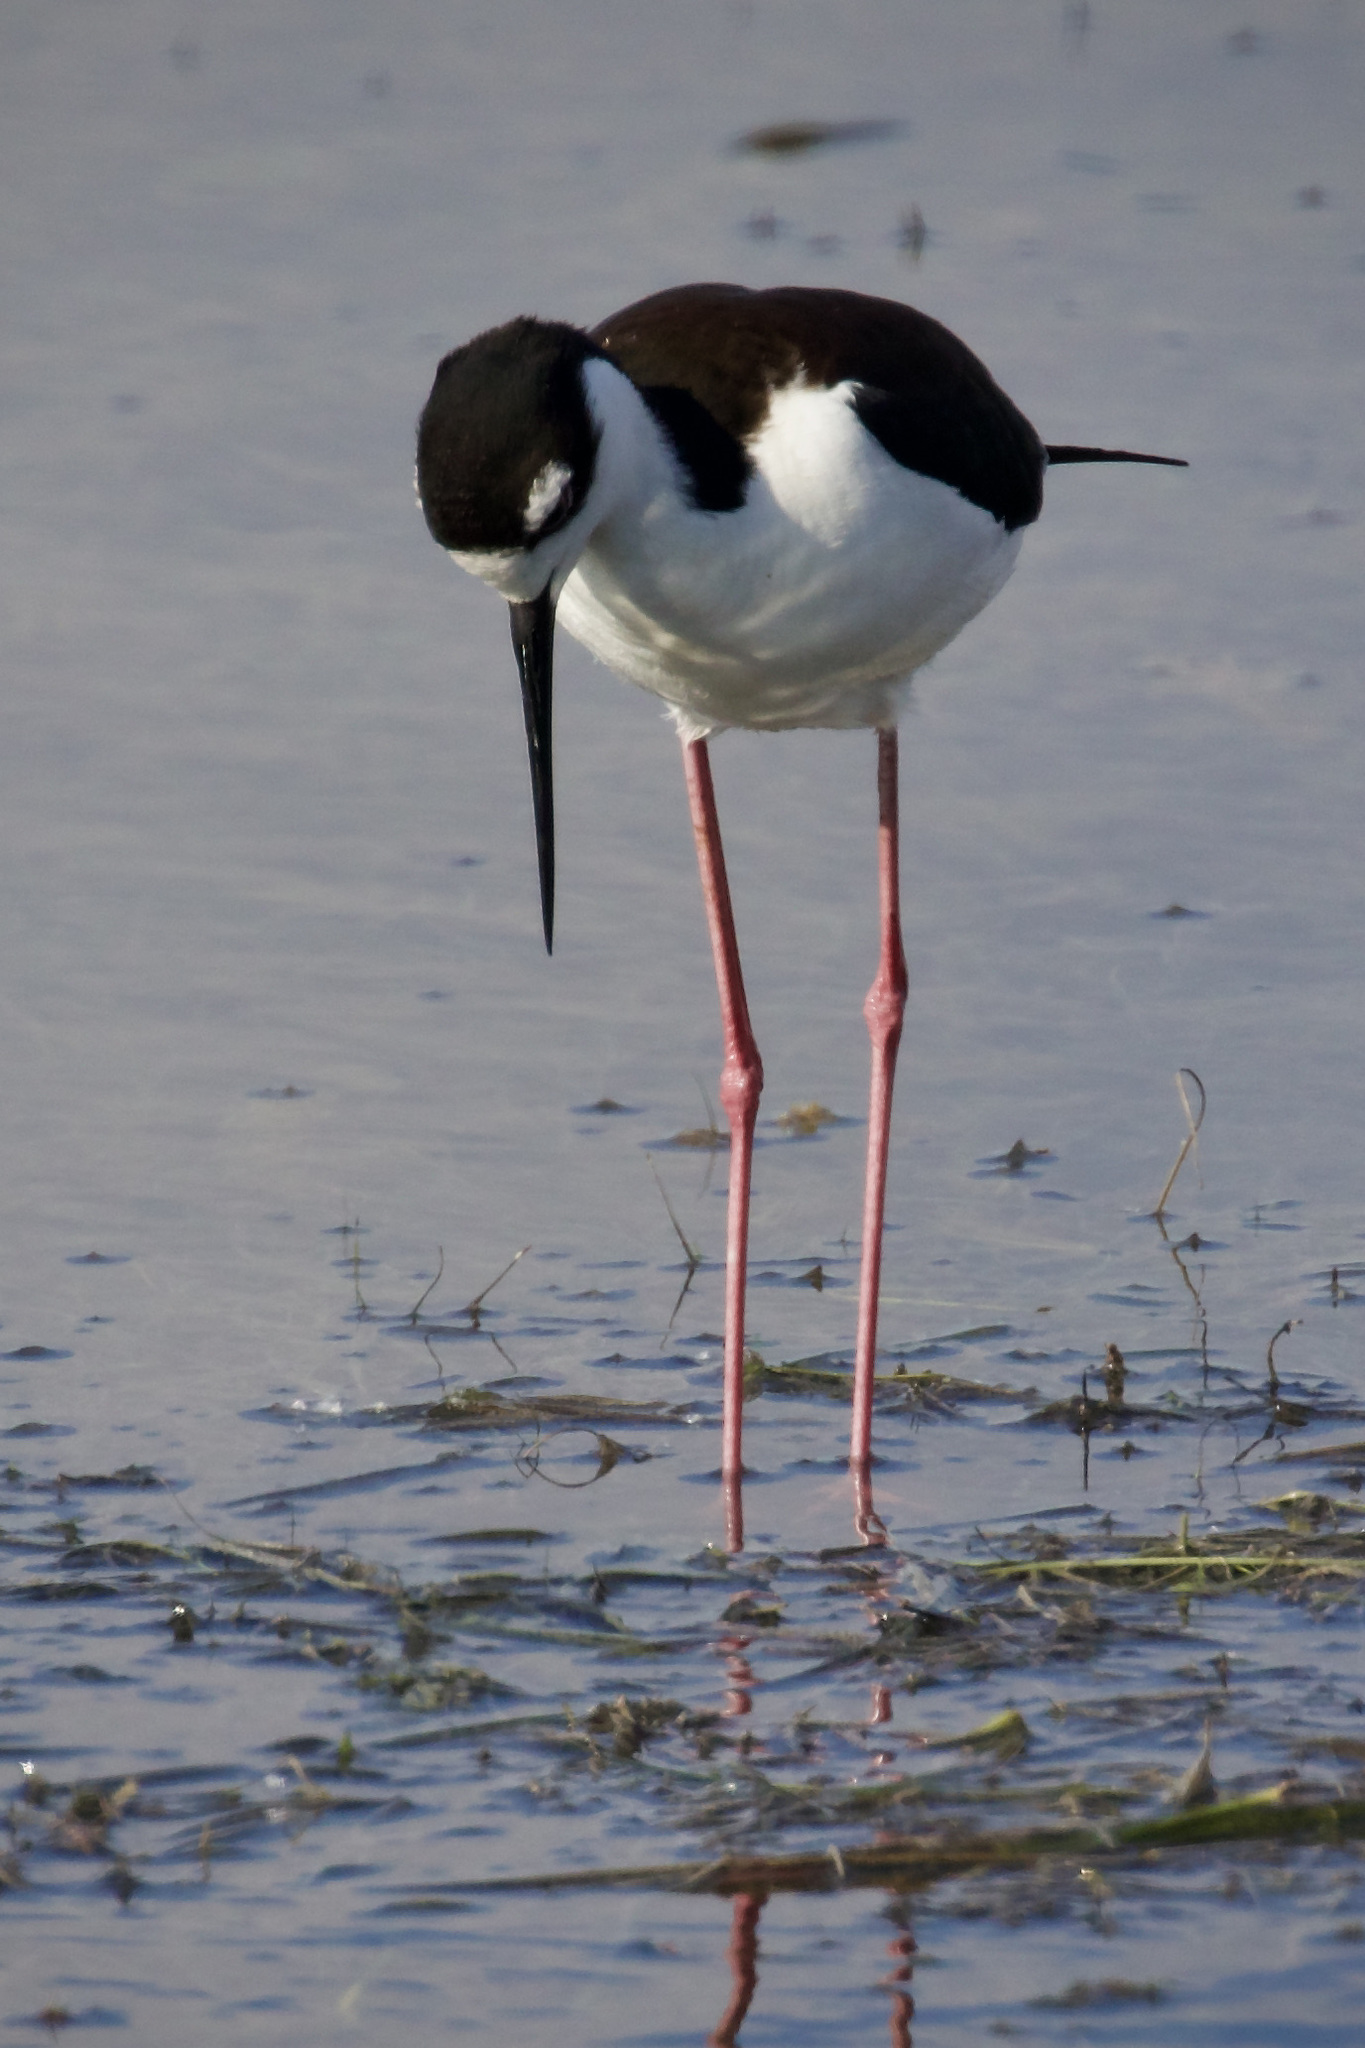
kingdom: Animalia
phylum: Chordata
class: Aves
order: Charadriiformes
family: Recurvirostridae
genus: Himantopus
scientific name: Himantopus mexicanus
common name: Black-necked stilt
